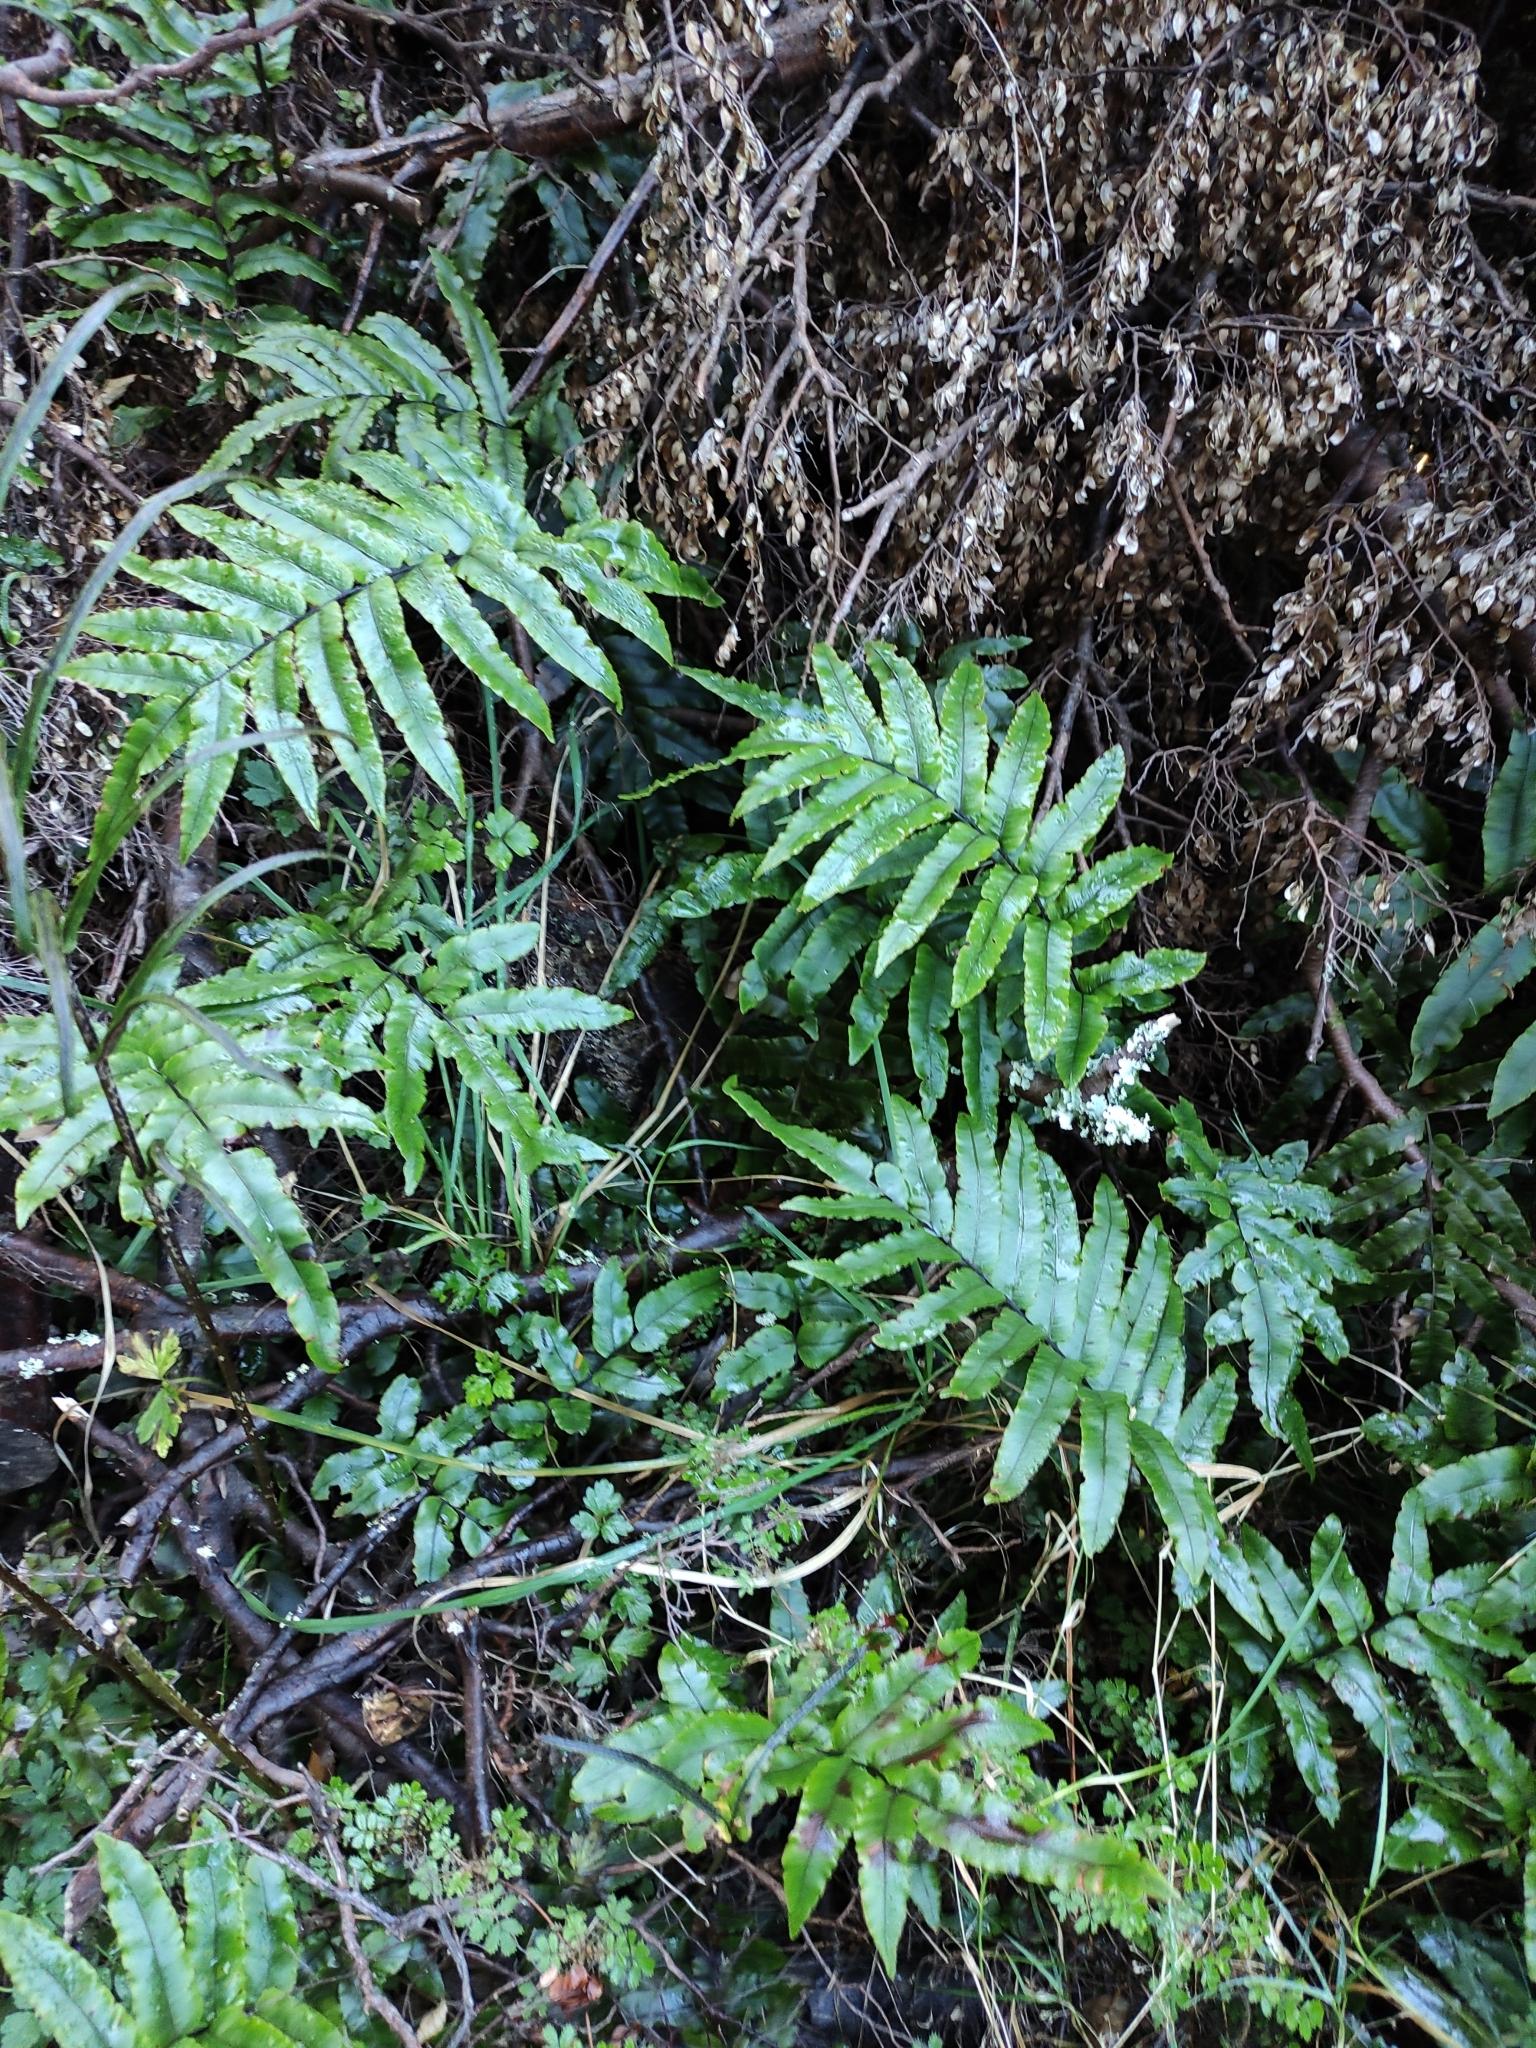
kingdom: Plantae
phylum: Tracheophyta
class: Polypodiopsida
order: Polypodiales
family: Blechnaceae
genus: Parablechnum
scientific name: Parablechnum procerum
